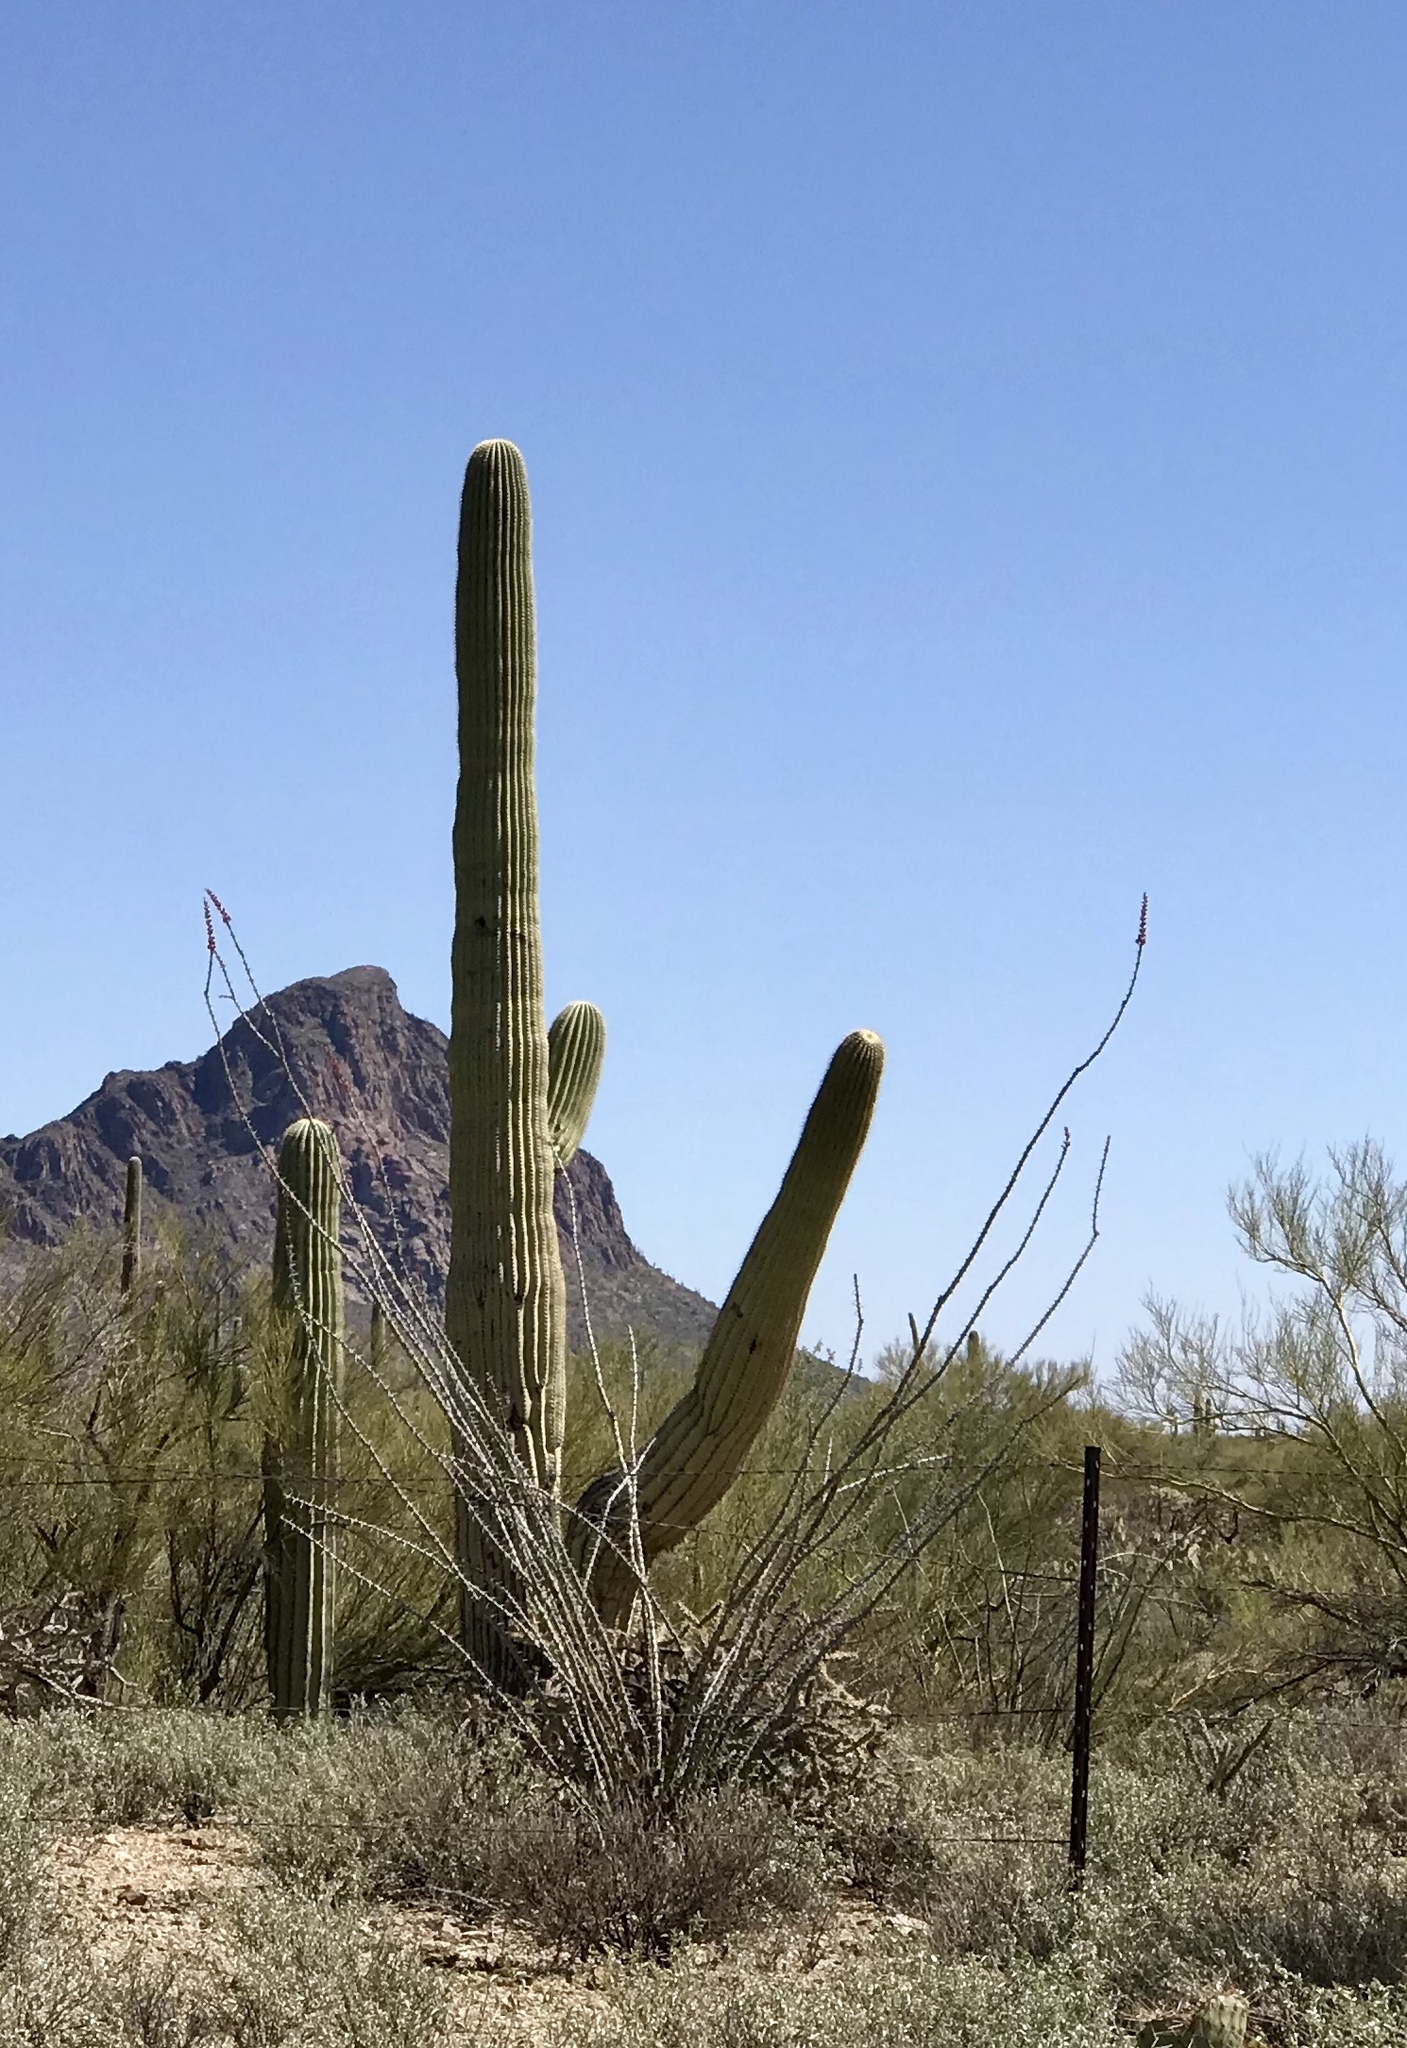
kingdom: Plantae
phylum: Tracheophyta
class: Magnoliopsida
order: Caryophyllales
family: Cactaceae
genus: Carnegiea
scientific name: Carnegiea gigantea
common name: Saguaro
